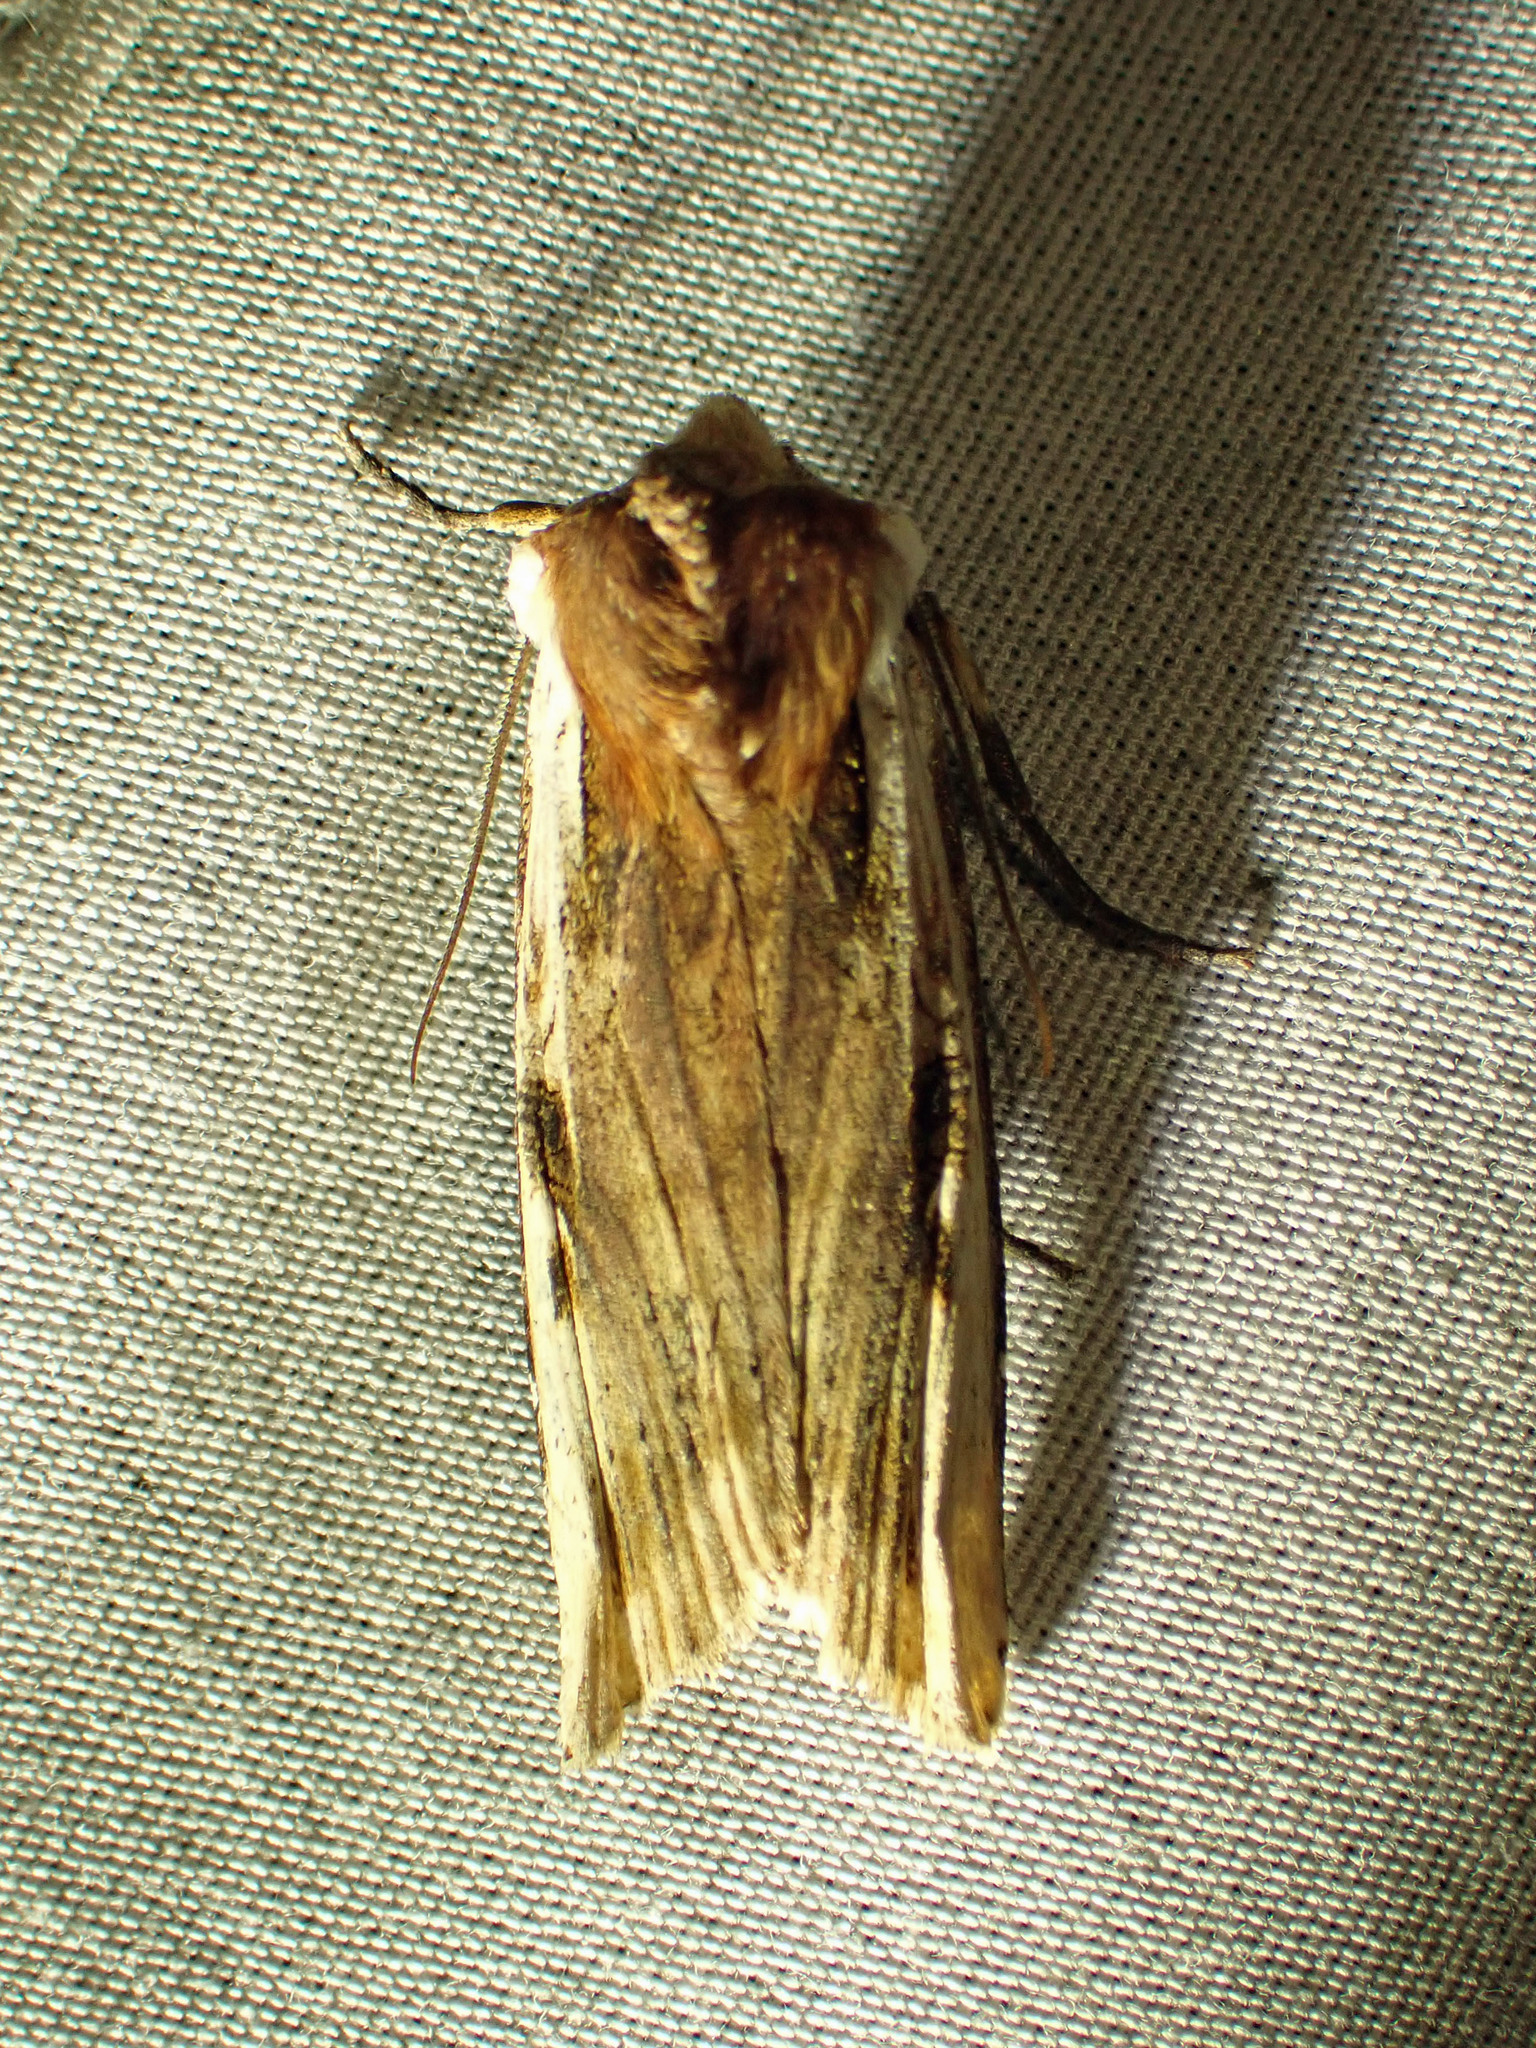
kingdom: Animalia
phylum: Arthropoda
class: Insecta
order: Lepidoptera
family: Noctuidae
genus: Xylena
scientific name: Xylena curvimacula
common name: Dot-and-dash swordgrass moth
